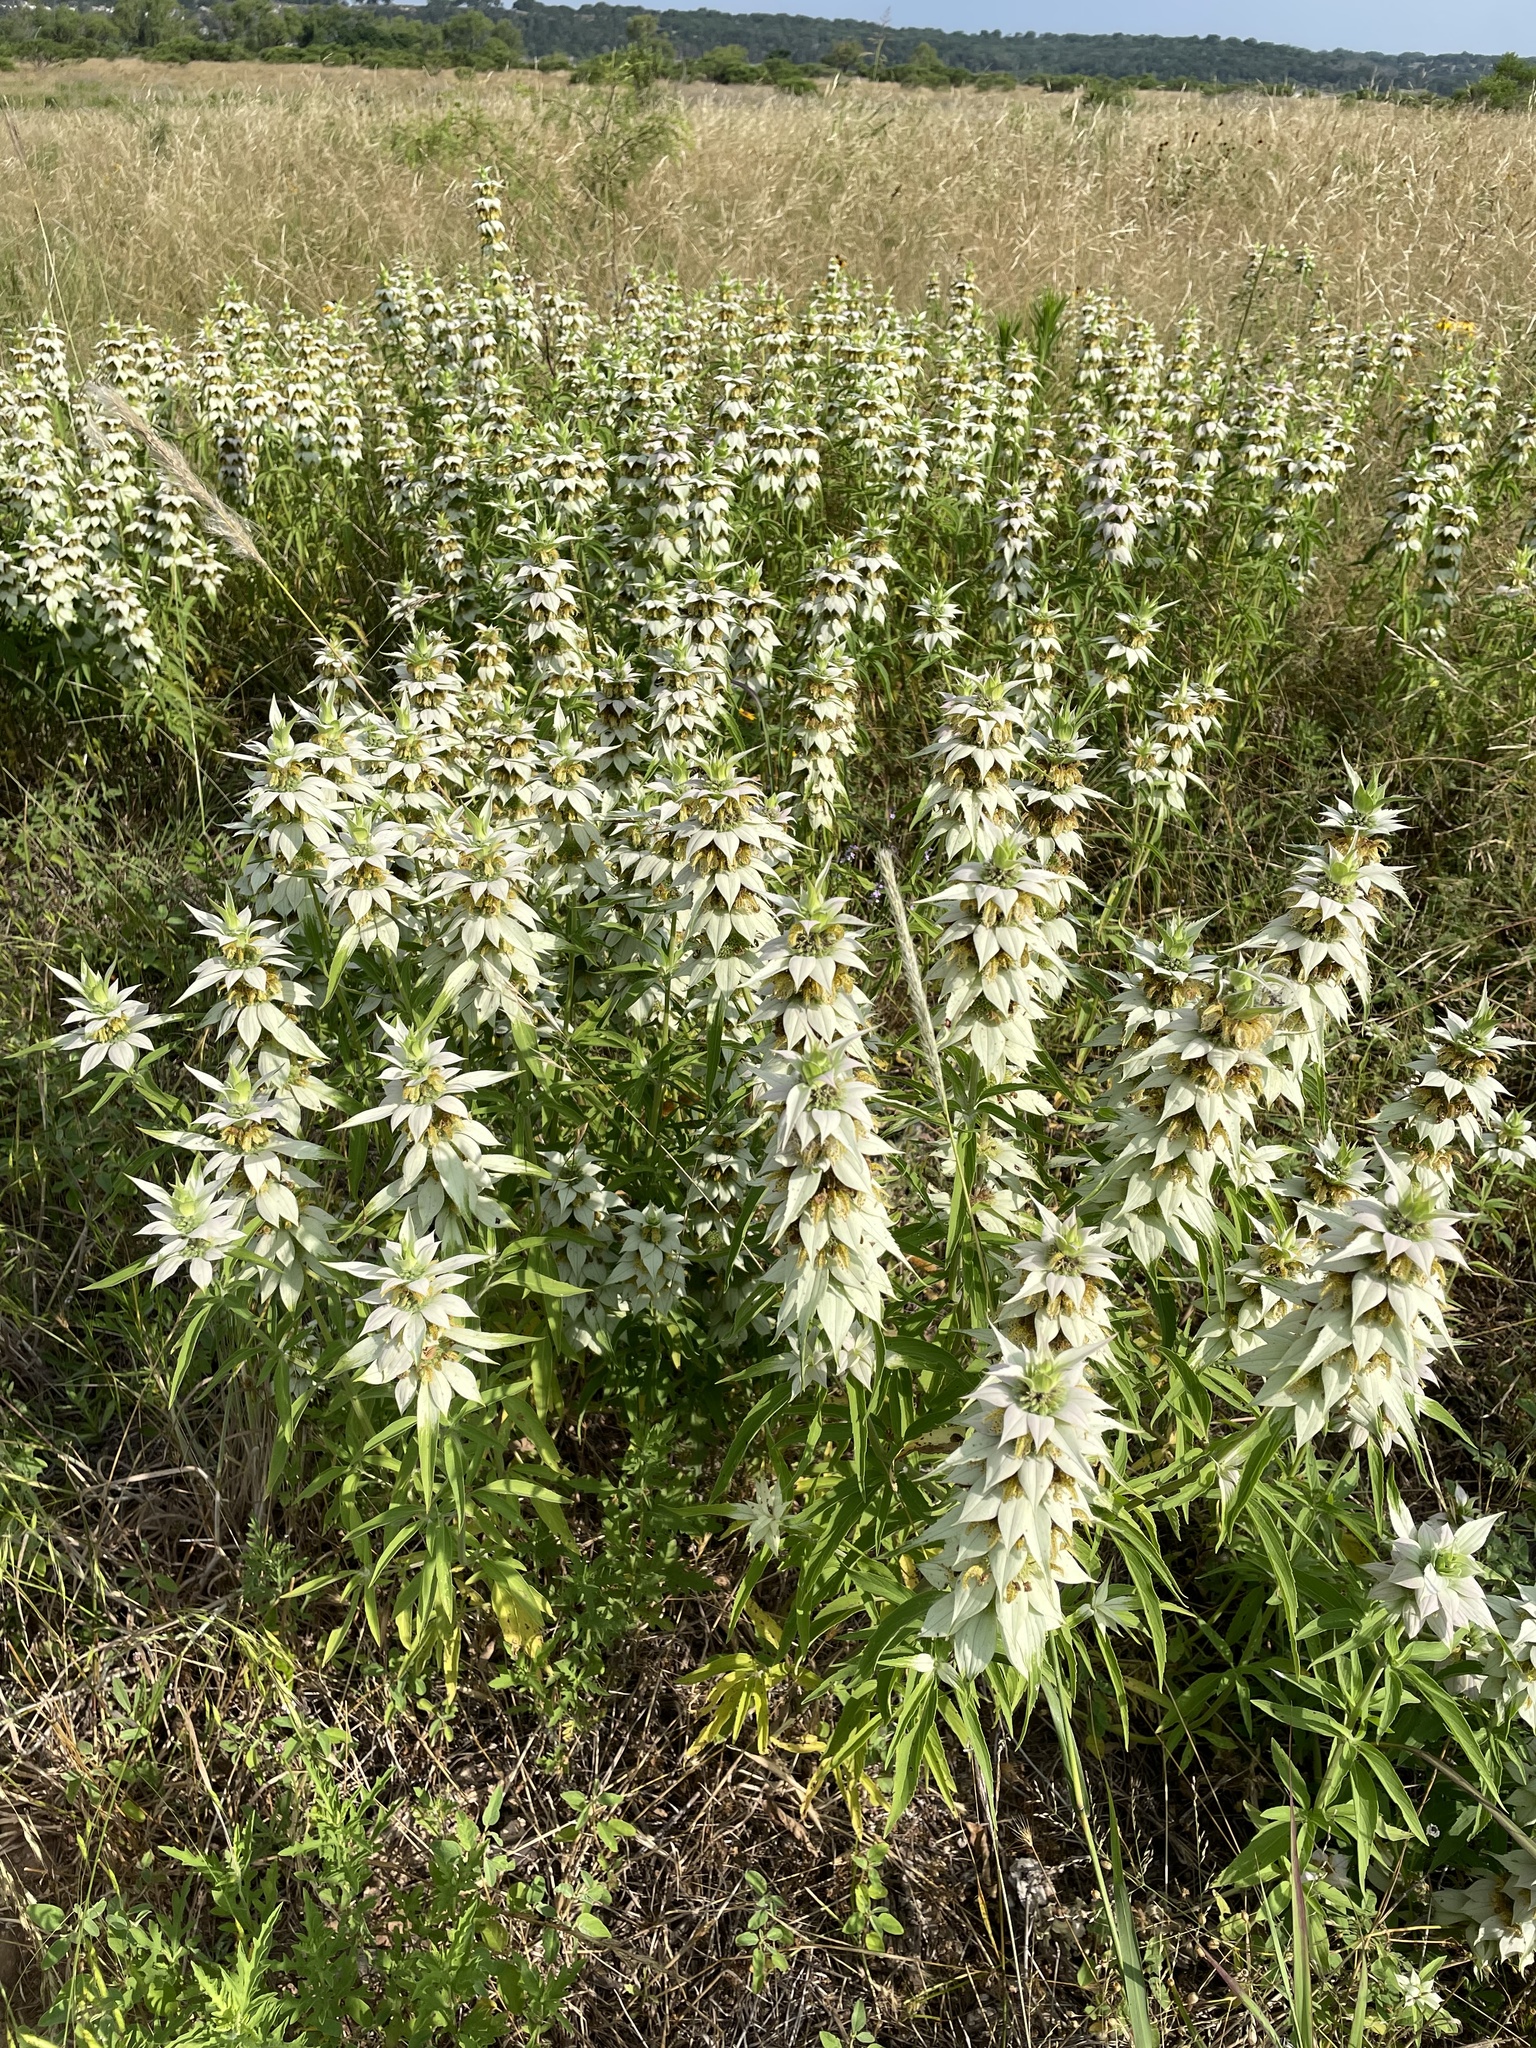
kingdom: Plantae
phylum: Tracheophyta
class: Magnoliopsida
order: Lamiales
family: Lamiaceae
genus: Monarda
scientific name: Monarda punctata
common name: Dotted monarda
